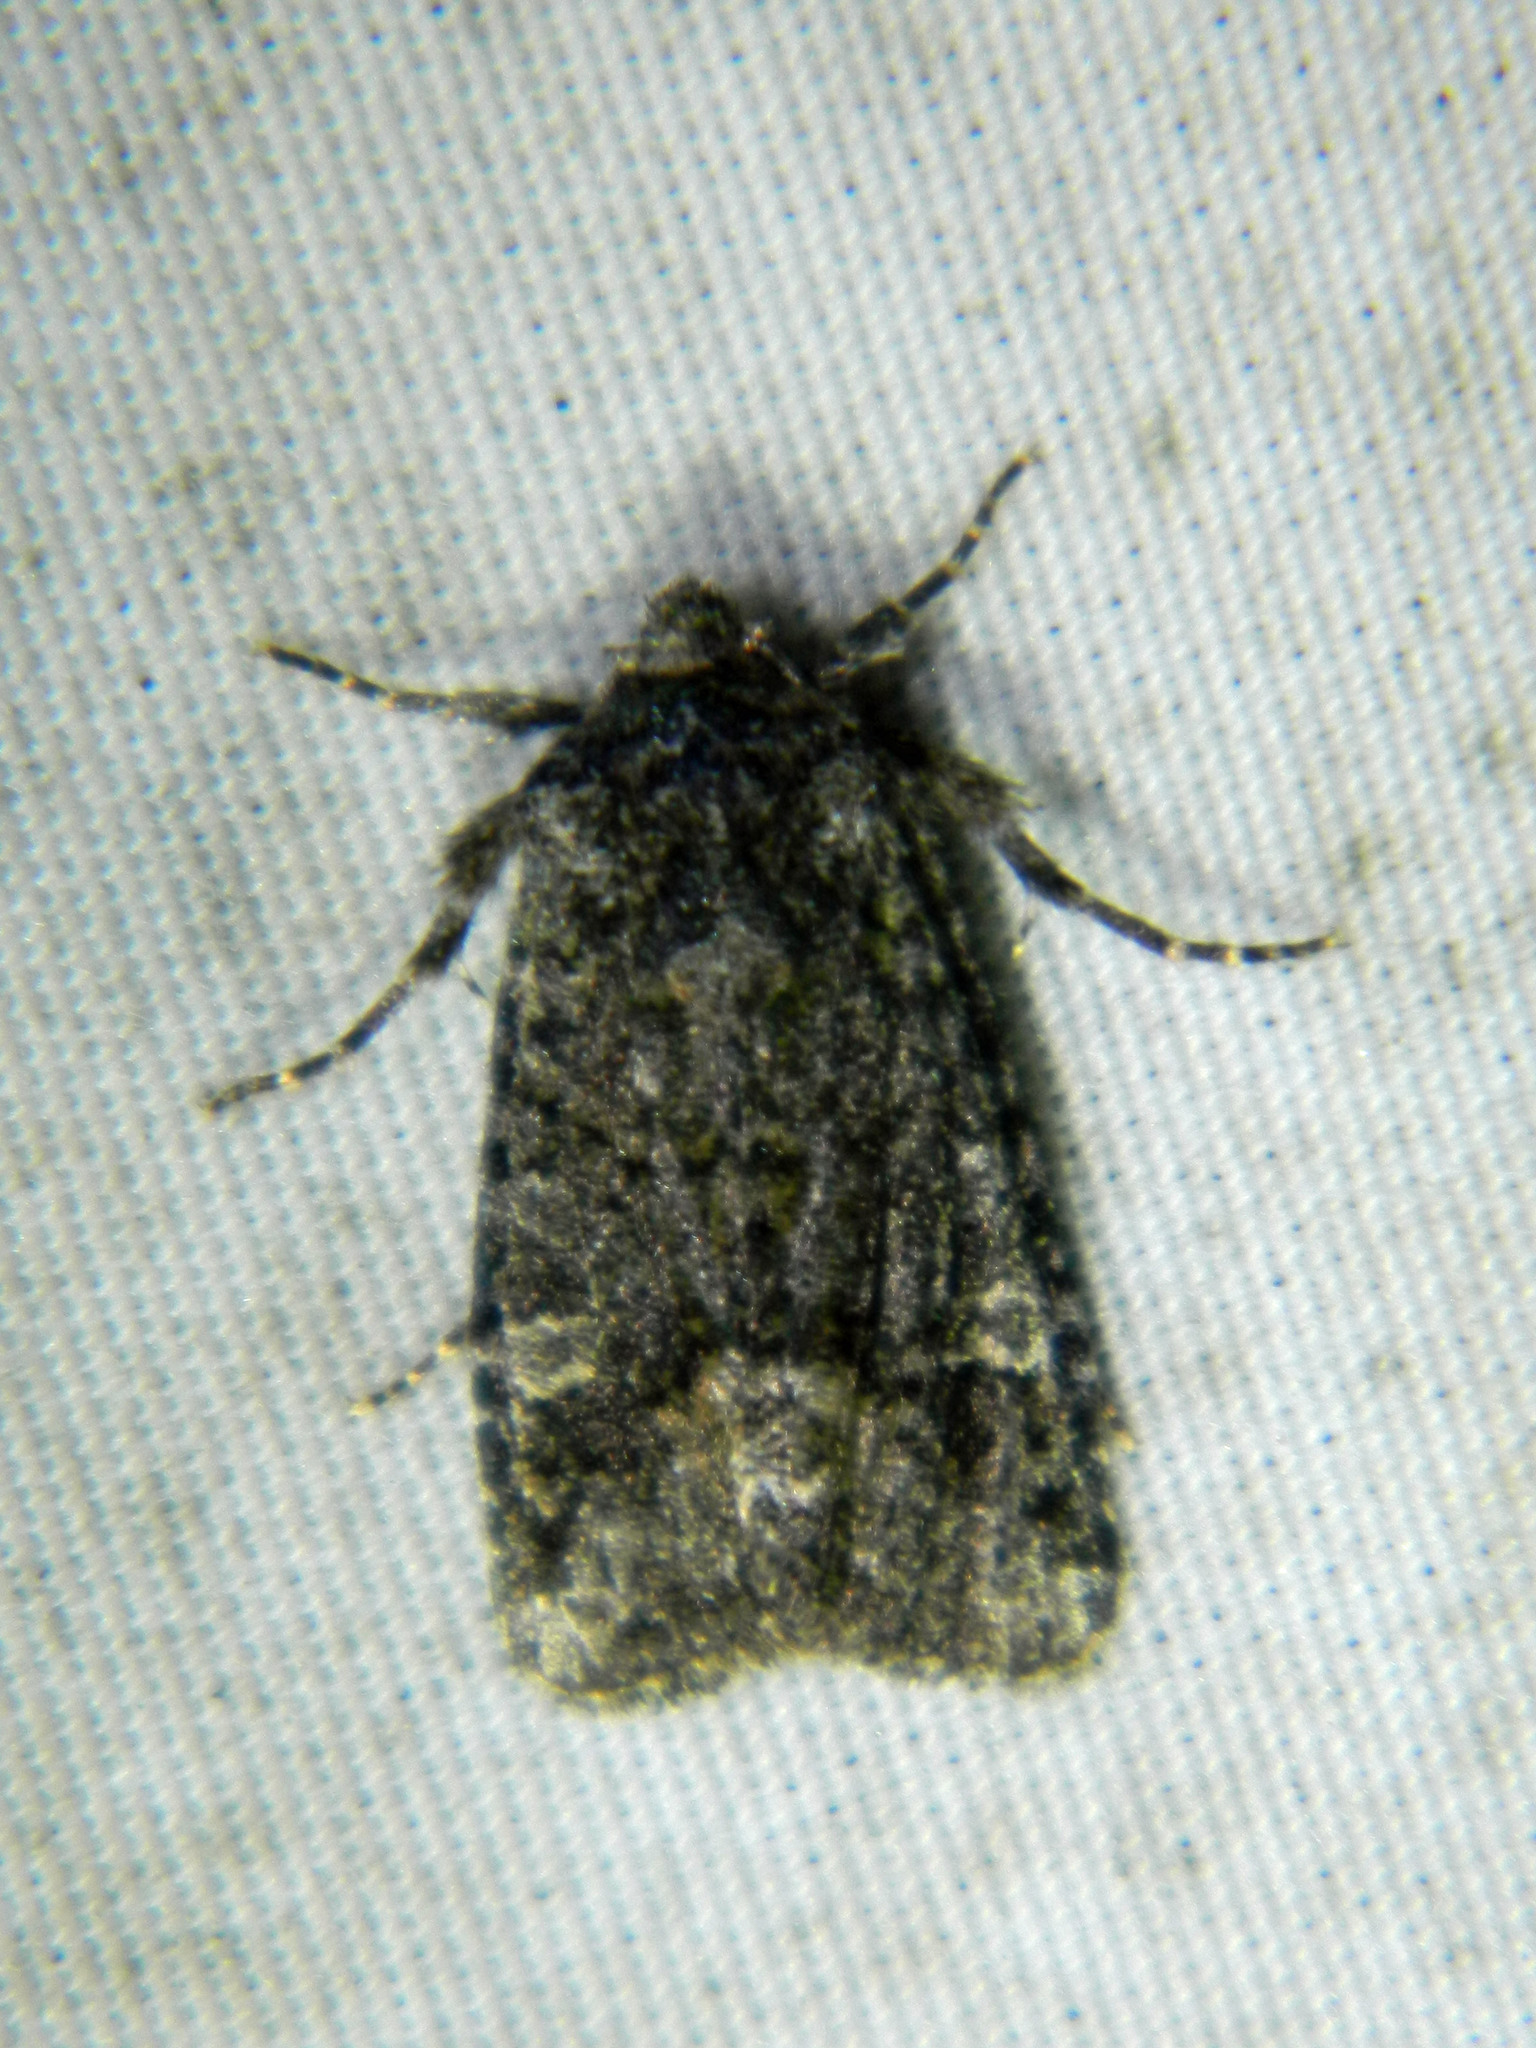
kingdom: Animalia
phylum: Arthropoda
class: Insecta
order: Lepidoptera
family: Noctuidae
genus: Lacinipolia
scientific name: Lacinipolia olivacea
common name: Olive arches moth
